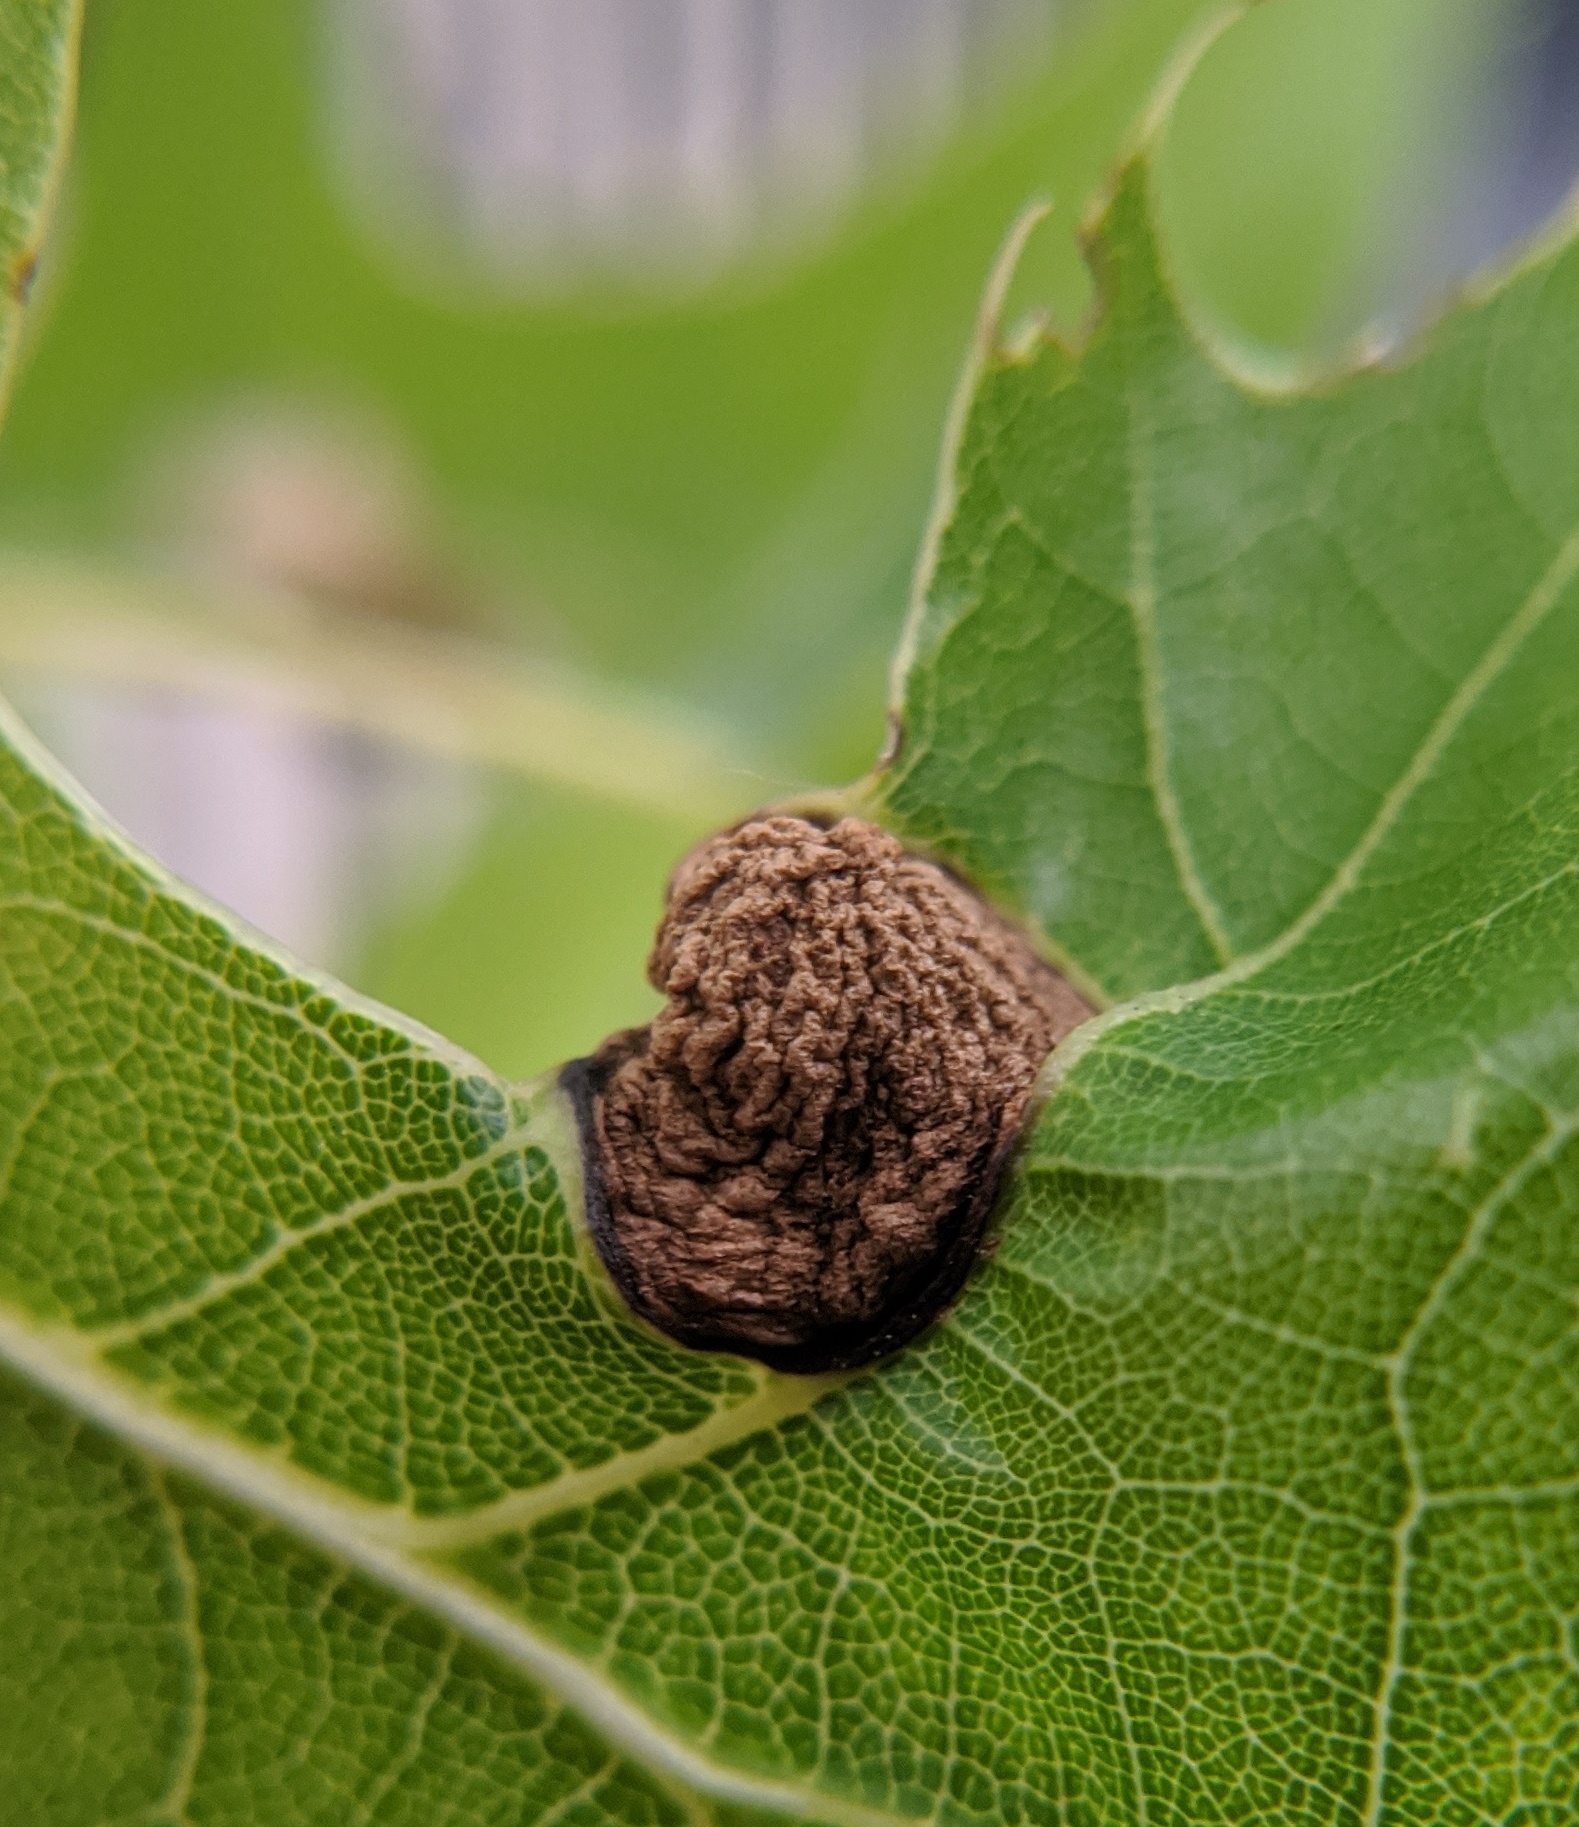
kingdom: Animalia
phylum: Arthropoda
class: Insecta
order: Hymenoptera
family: Cynipidae
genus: Dryocosmus
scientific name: Dryocosmus quercuspalustris
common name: Succulent oak gall wasp
